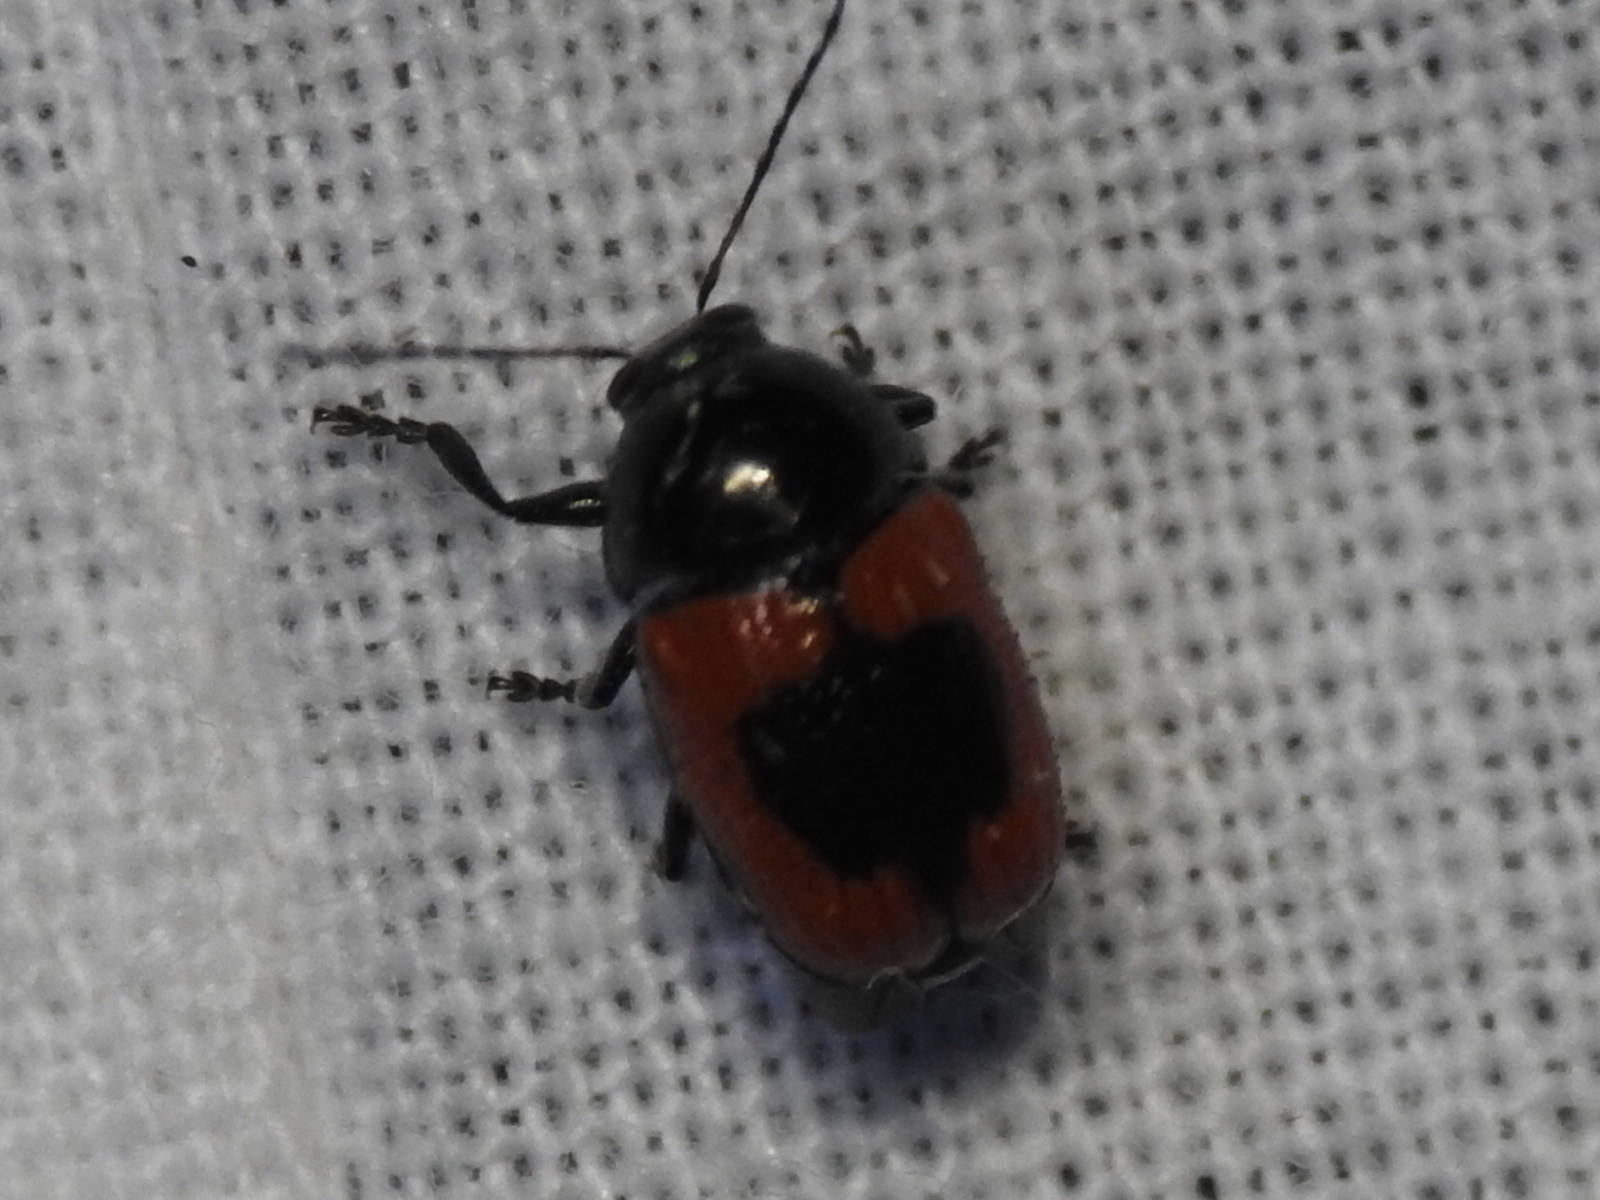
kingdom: Animalia
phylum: Arthropoda
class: Insecta
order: Coleoptera
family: Chrysomelidae
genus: Cryptocephalus
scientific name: Cryptocephalus notatus
